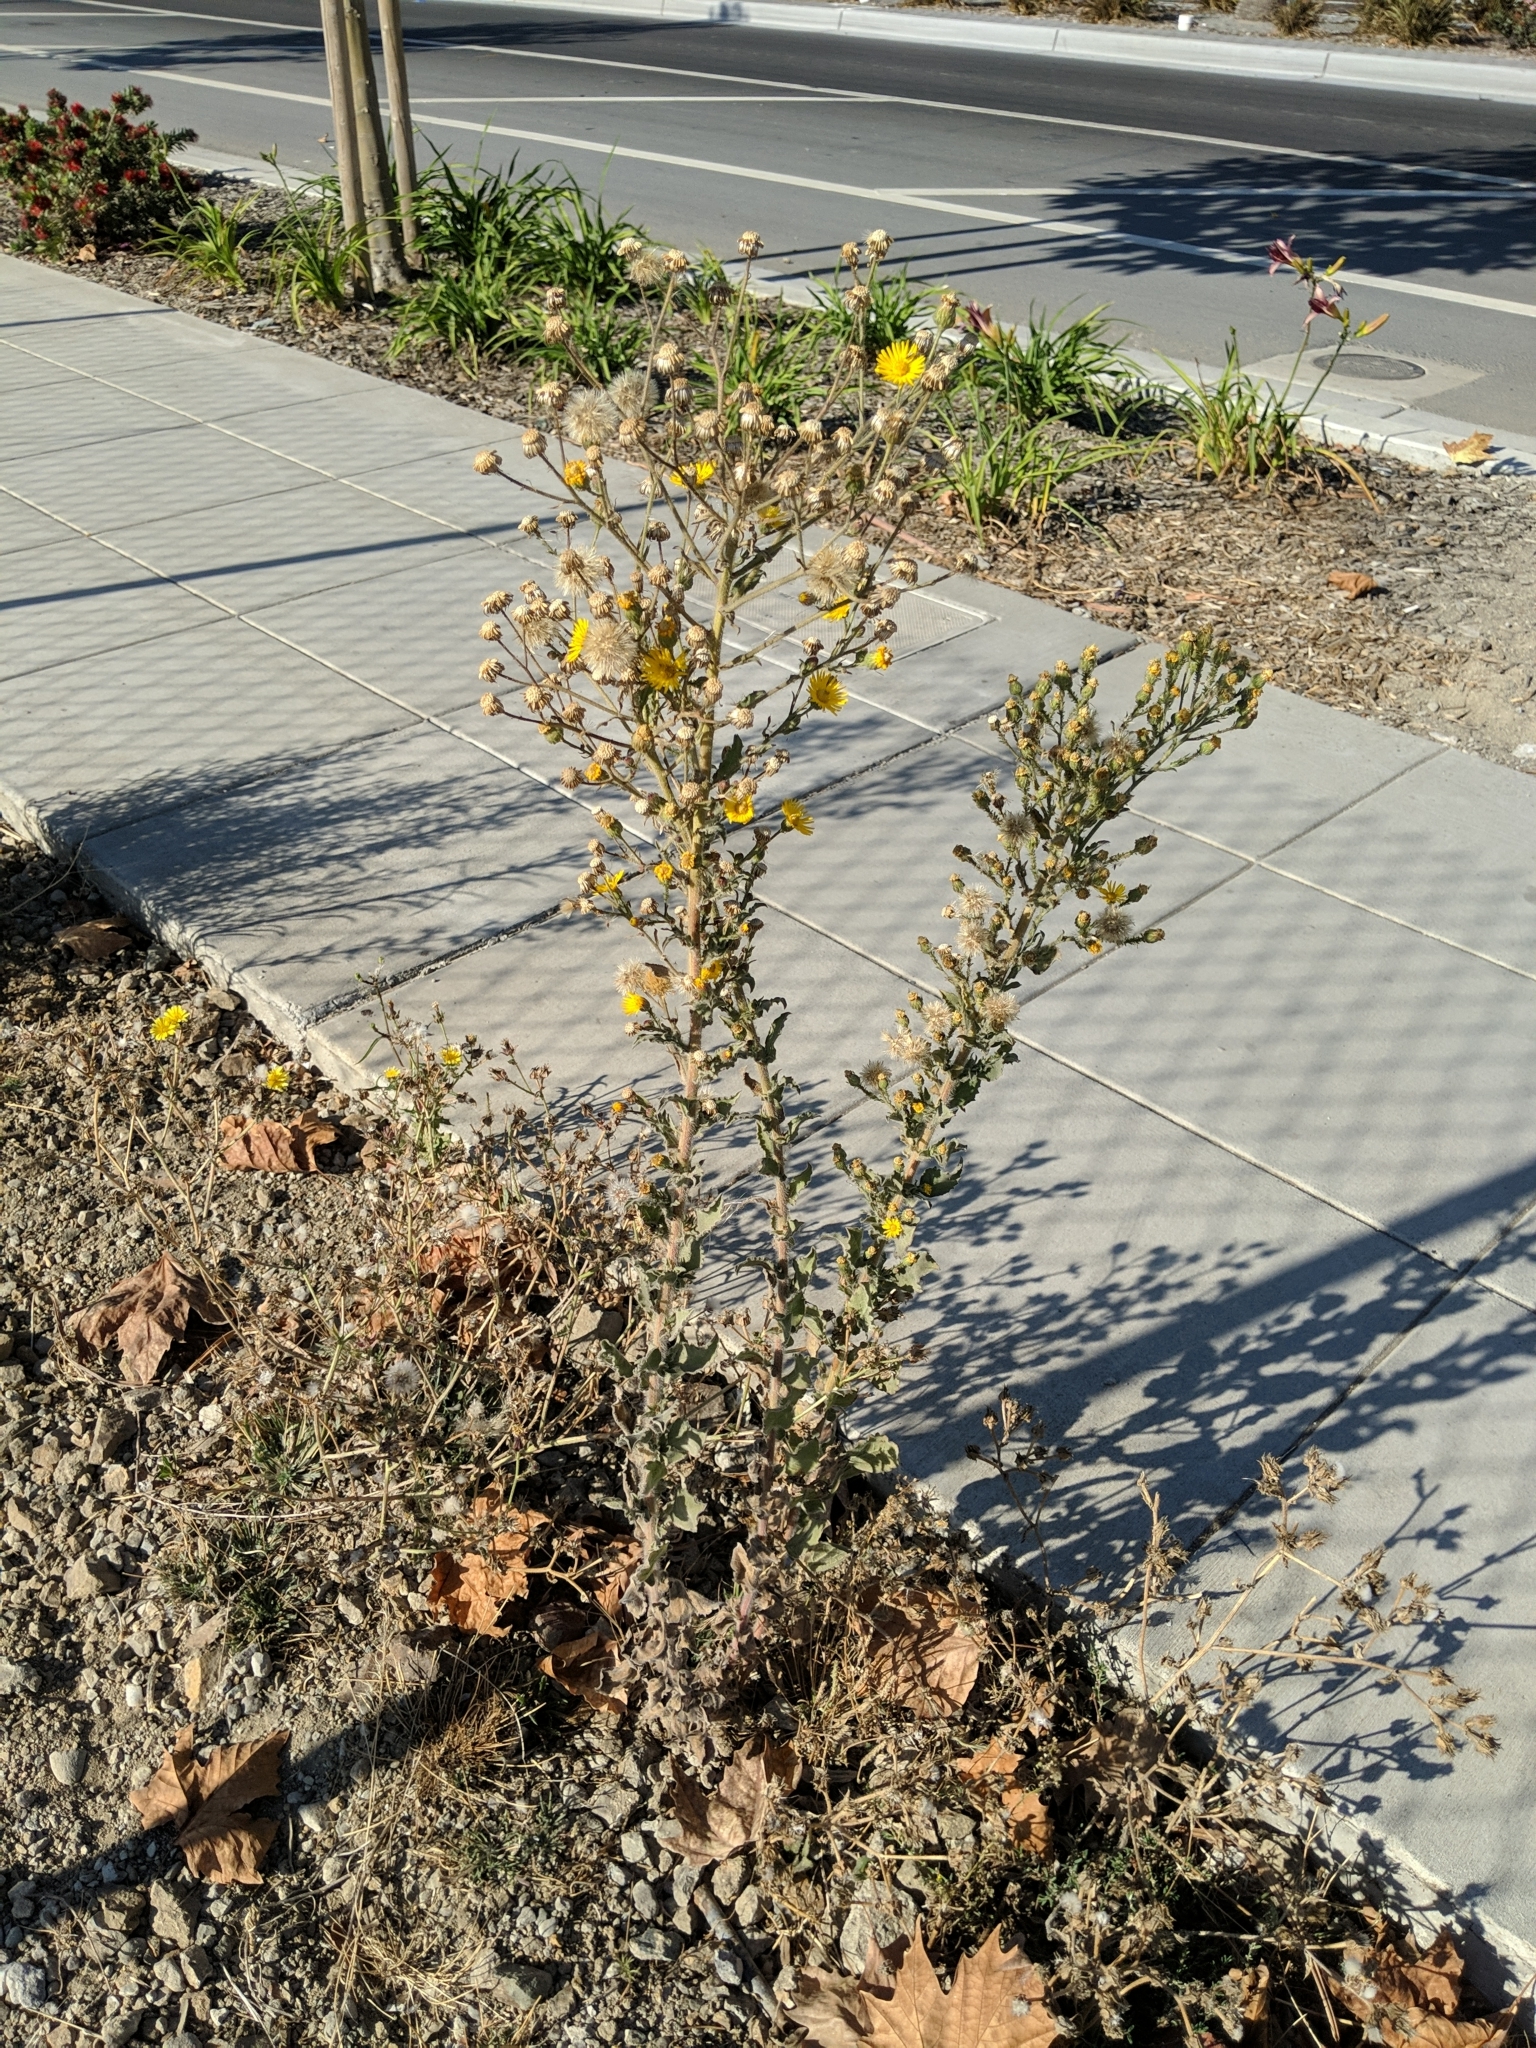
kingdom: Plantae
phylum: Tracheophyta
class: Magnoliopsida
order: Asterales
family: Asteraceae
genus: Heterotheca
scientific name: Heterotheca grandiflora
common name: Telegraphweed
